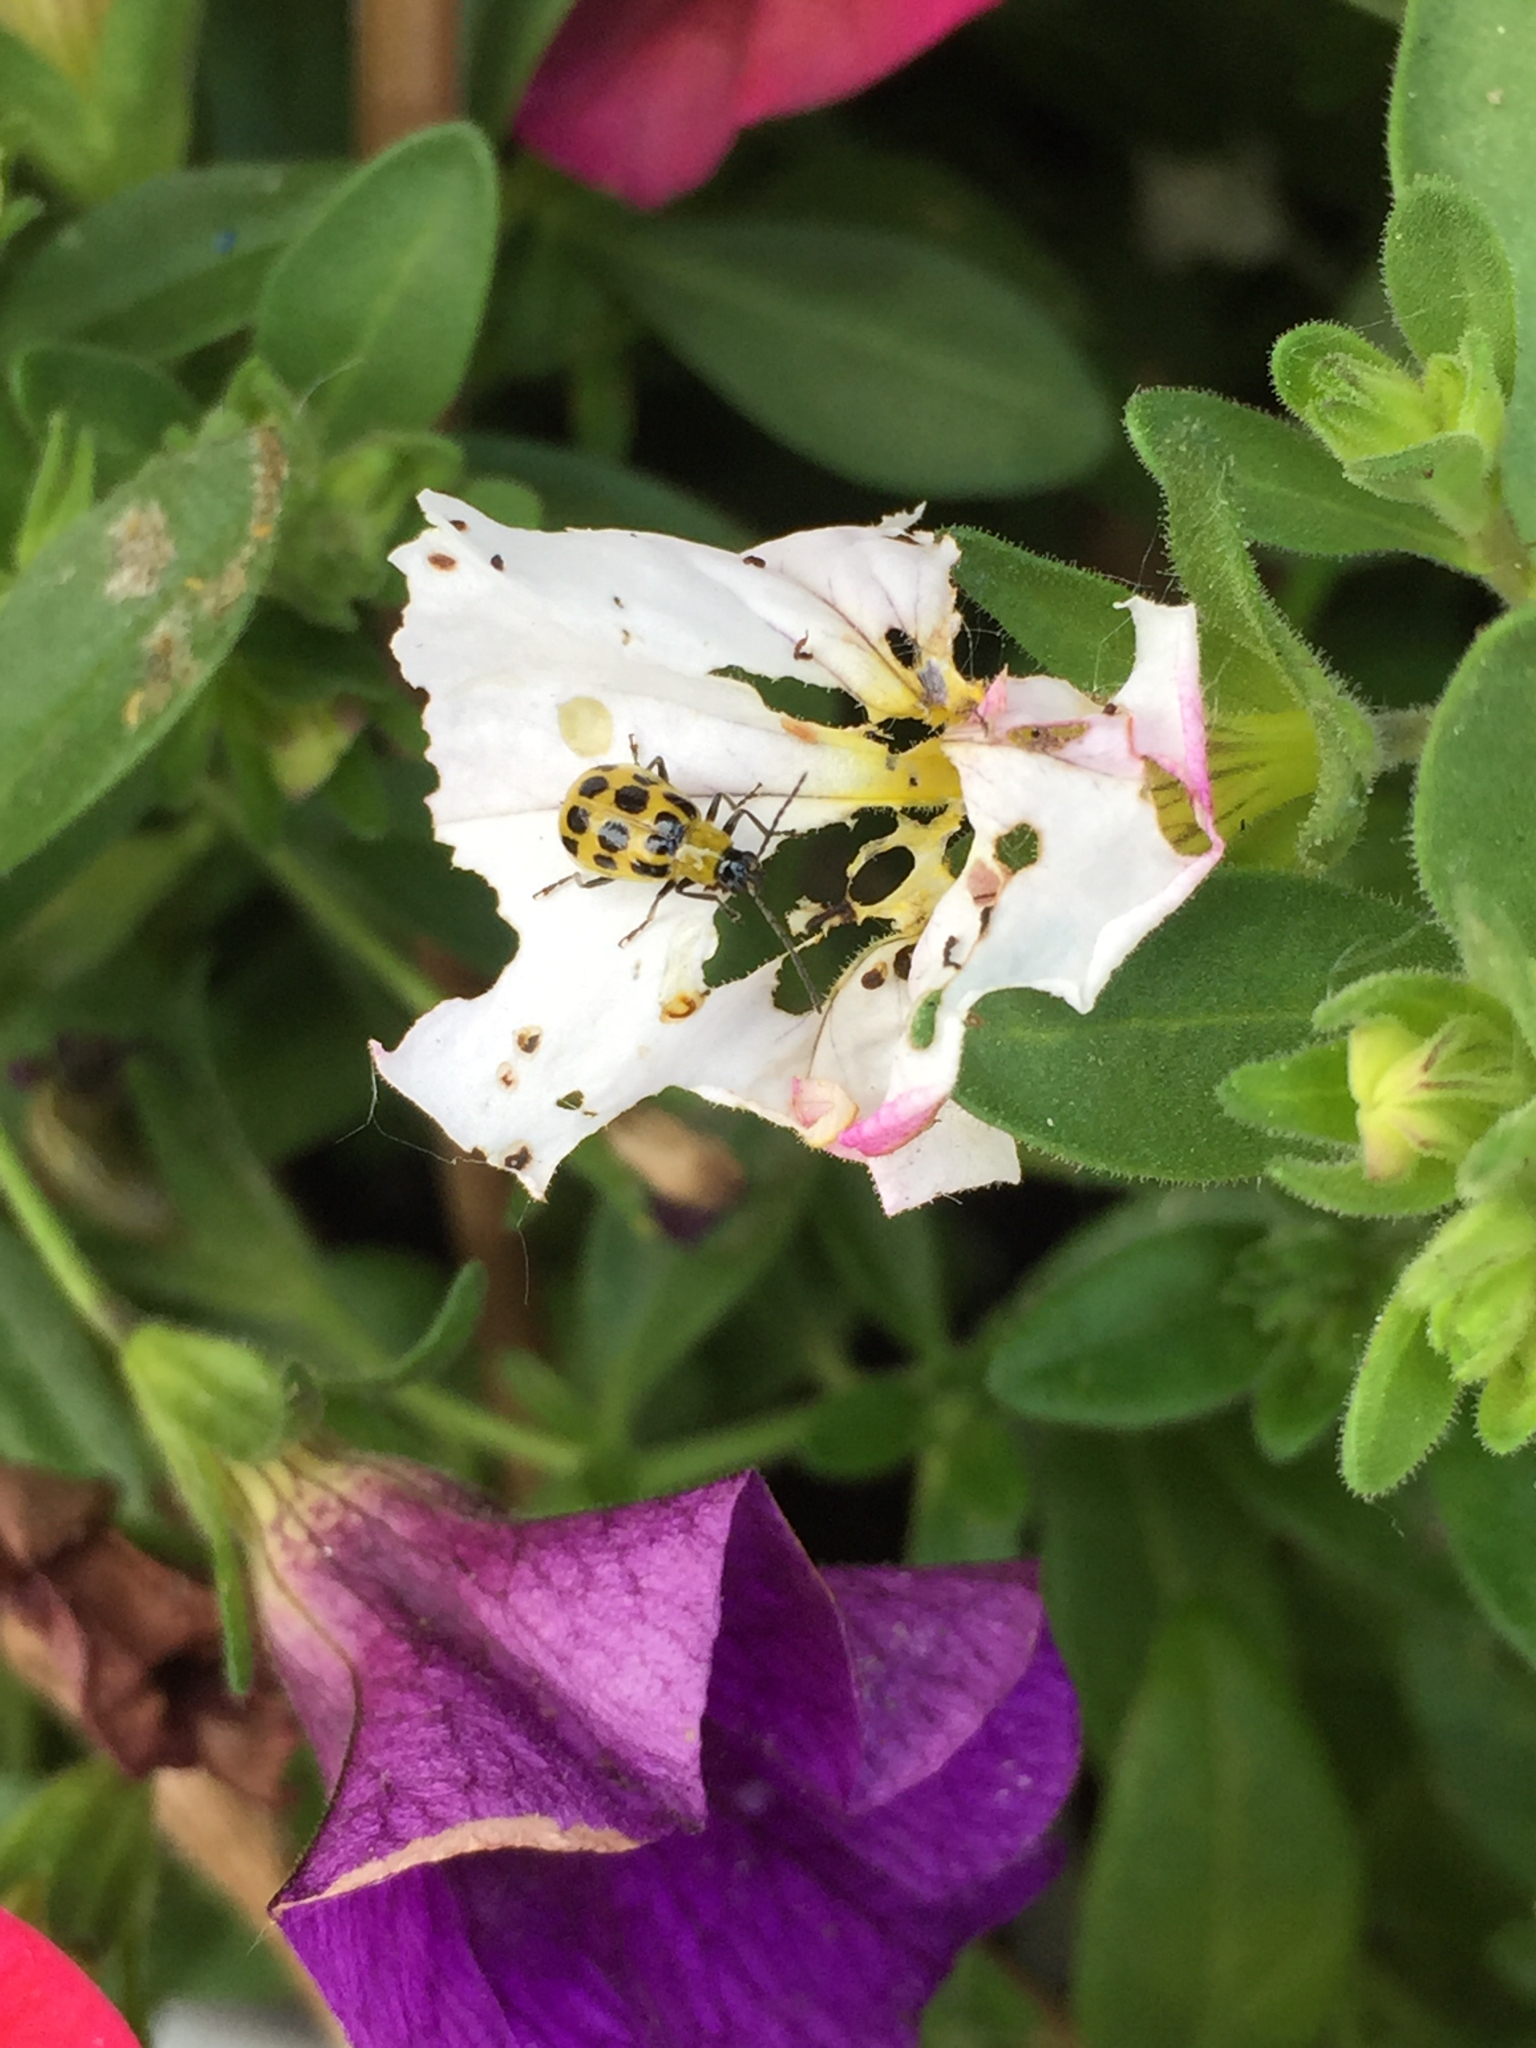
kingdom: Animalia
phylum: Arthropoda
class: Insecta
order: Coleoptera
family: Chrysomelidae
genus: Diabrotica
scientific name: Diabrotica undecimpunctata
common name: Spotted cucumber beetle
